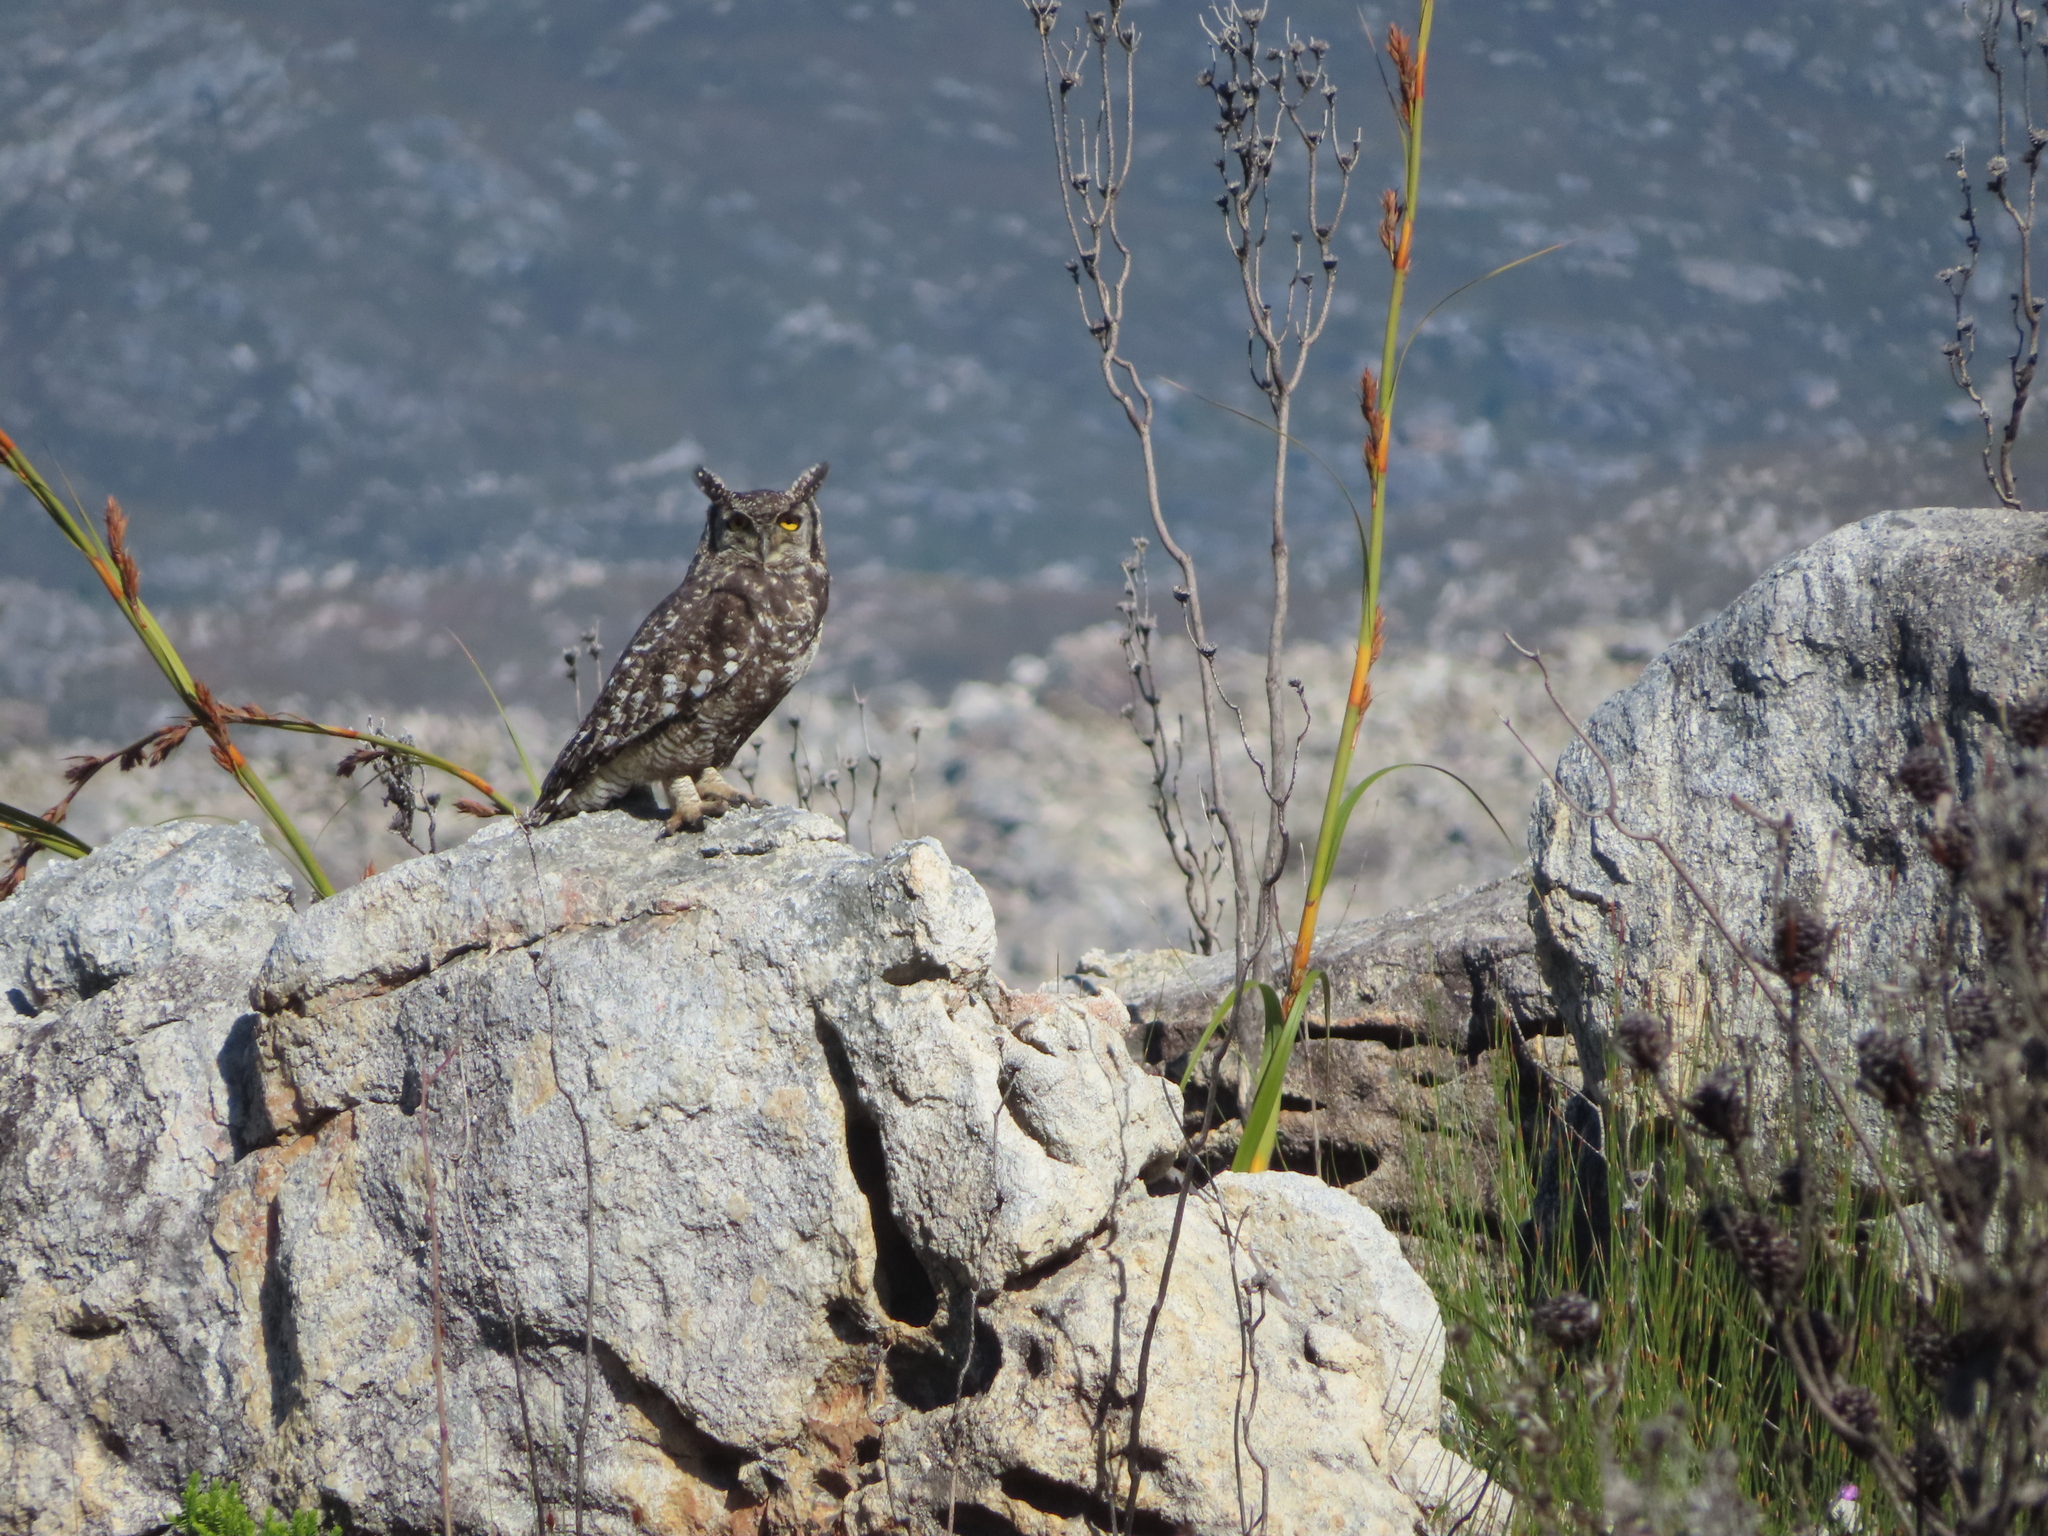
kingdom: Animalia
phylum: Chordata
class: Aves
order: Strigiformes
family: Strigidae
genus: Bubo
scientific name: Bubo africanus
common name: Spotted eagle-owl
